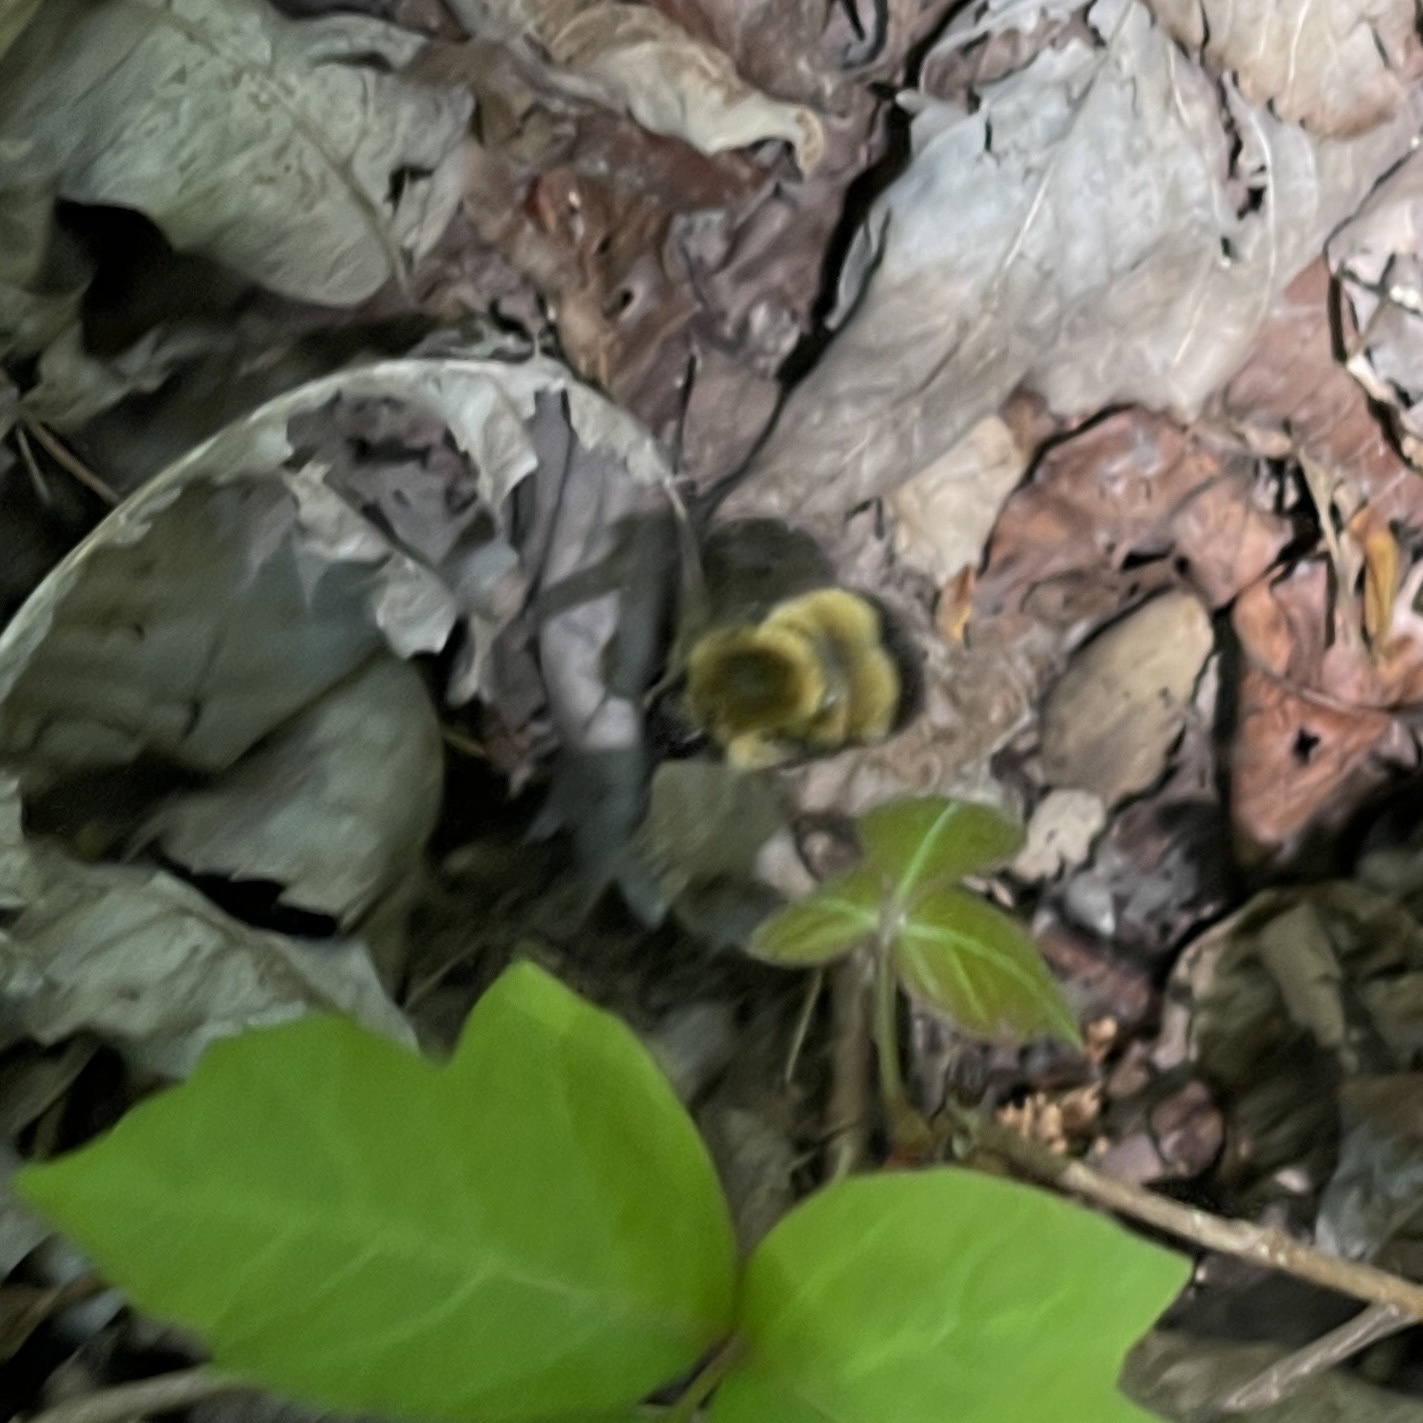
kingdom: Animalia
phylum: Arthropoda
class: Insecta
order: Hymenoptera
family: Apidae
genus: Bombus
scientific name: Bombus perplexus
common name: Confusing bumble bee
